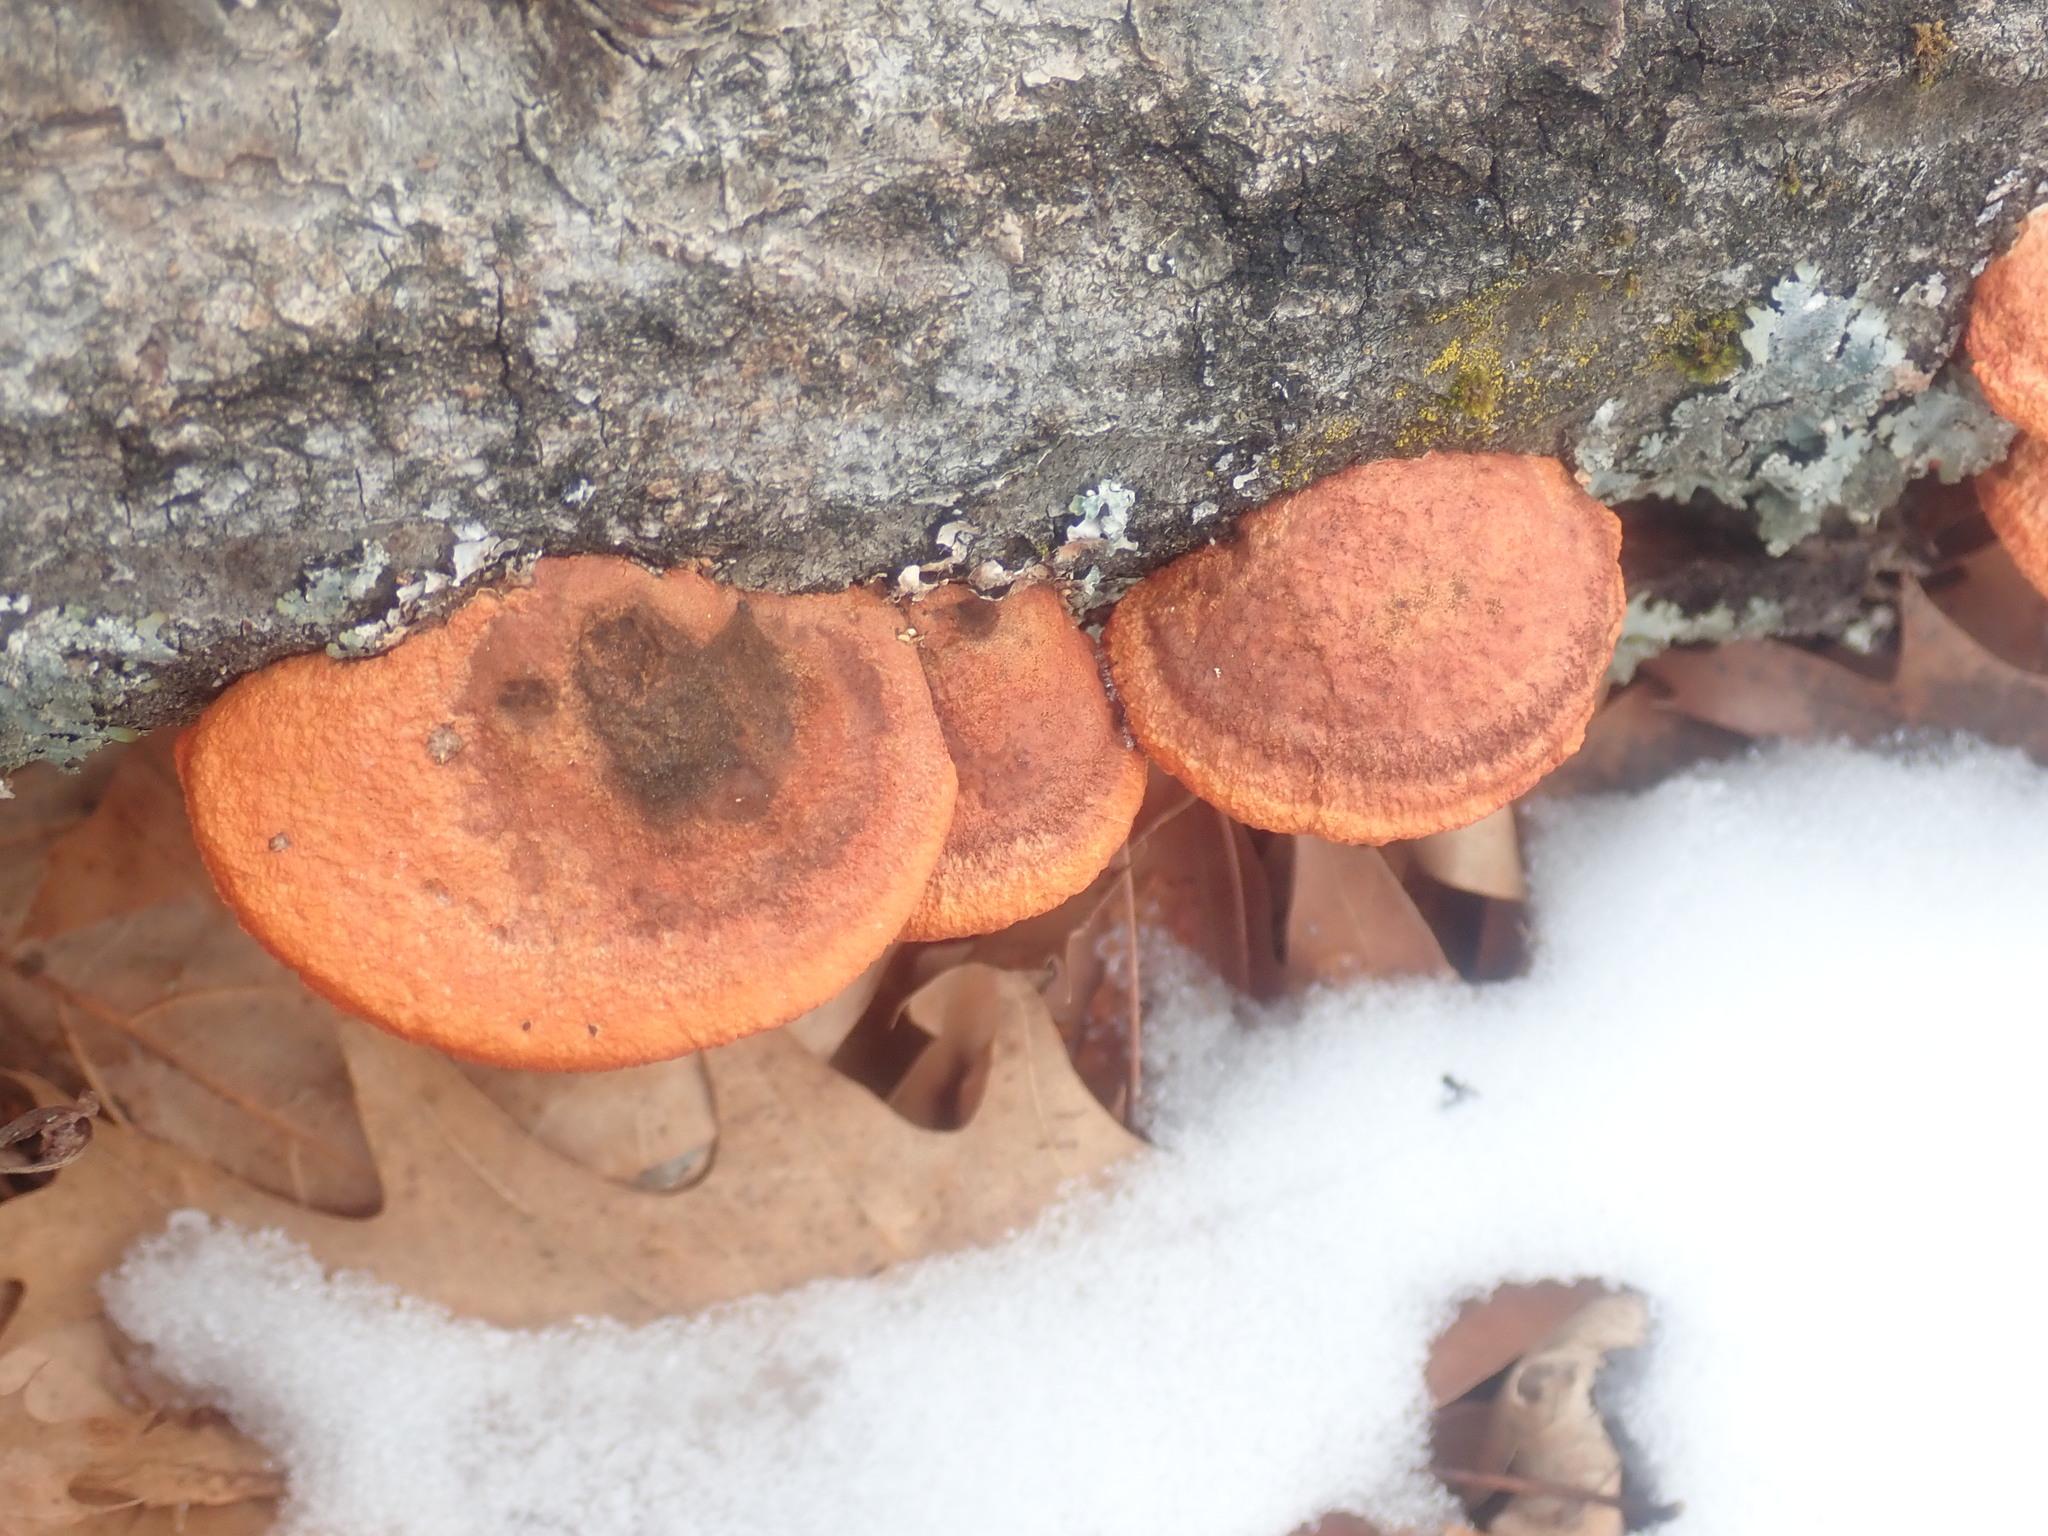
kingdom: Fungi
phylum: Basidiomycota
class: Agaricomycetes
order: Polyporales
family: Polyporaceae
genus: Trametes
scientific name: Trametes cinnabarina
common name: Northern cinnabar polypore
